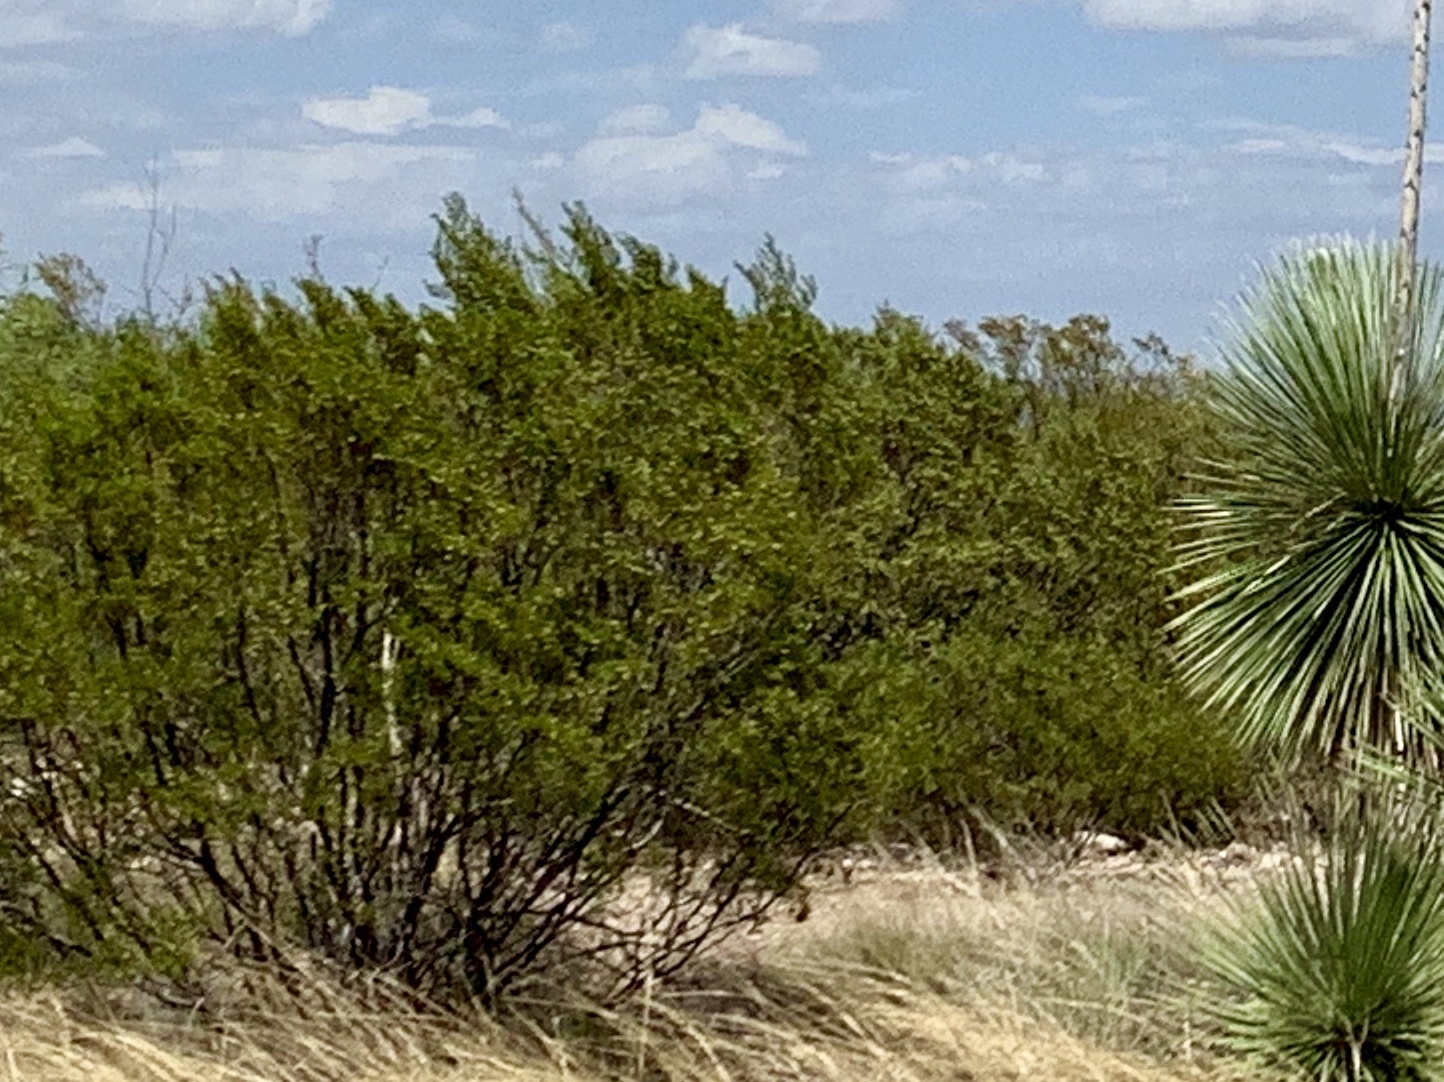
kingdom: Plantae
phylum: Tracheophyta
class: Magnoliopsida
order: Zygophyllales
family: Zygophyllaceae
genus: Larrea
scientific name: Larrea tridentata
